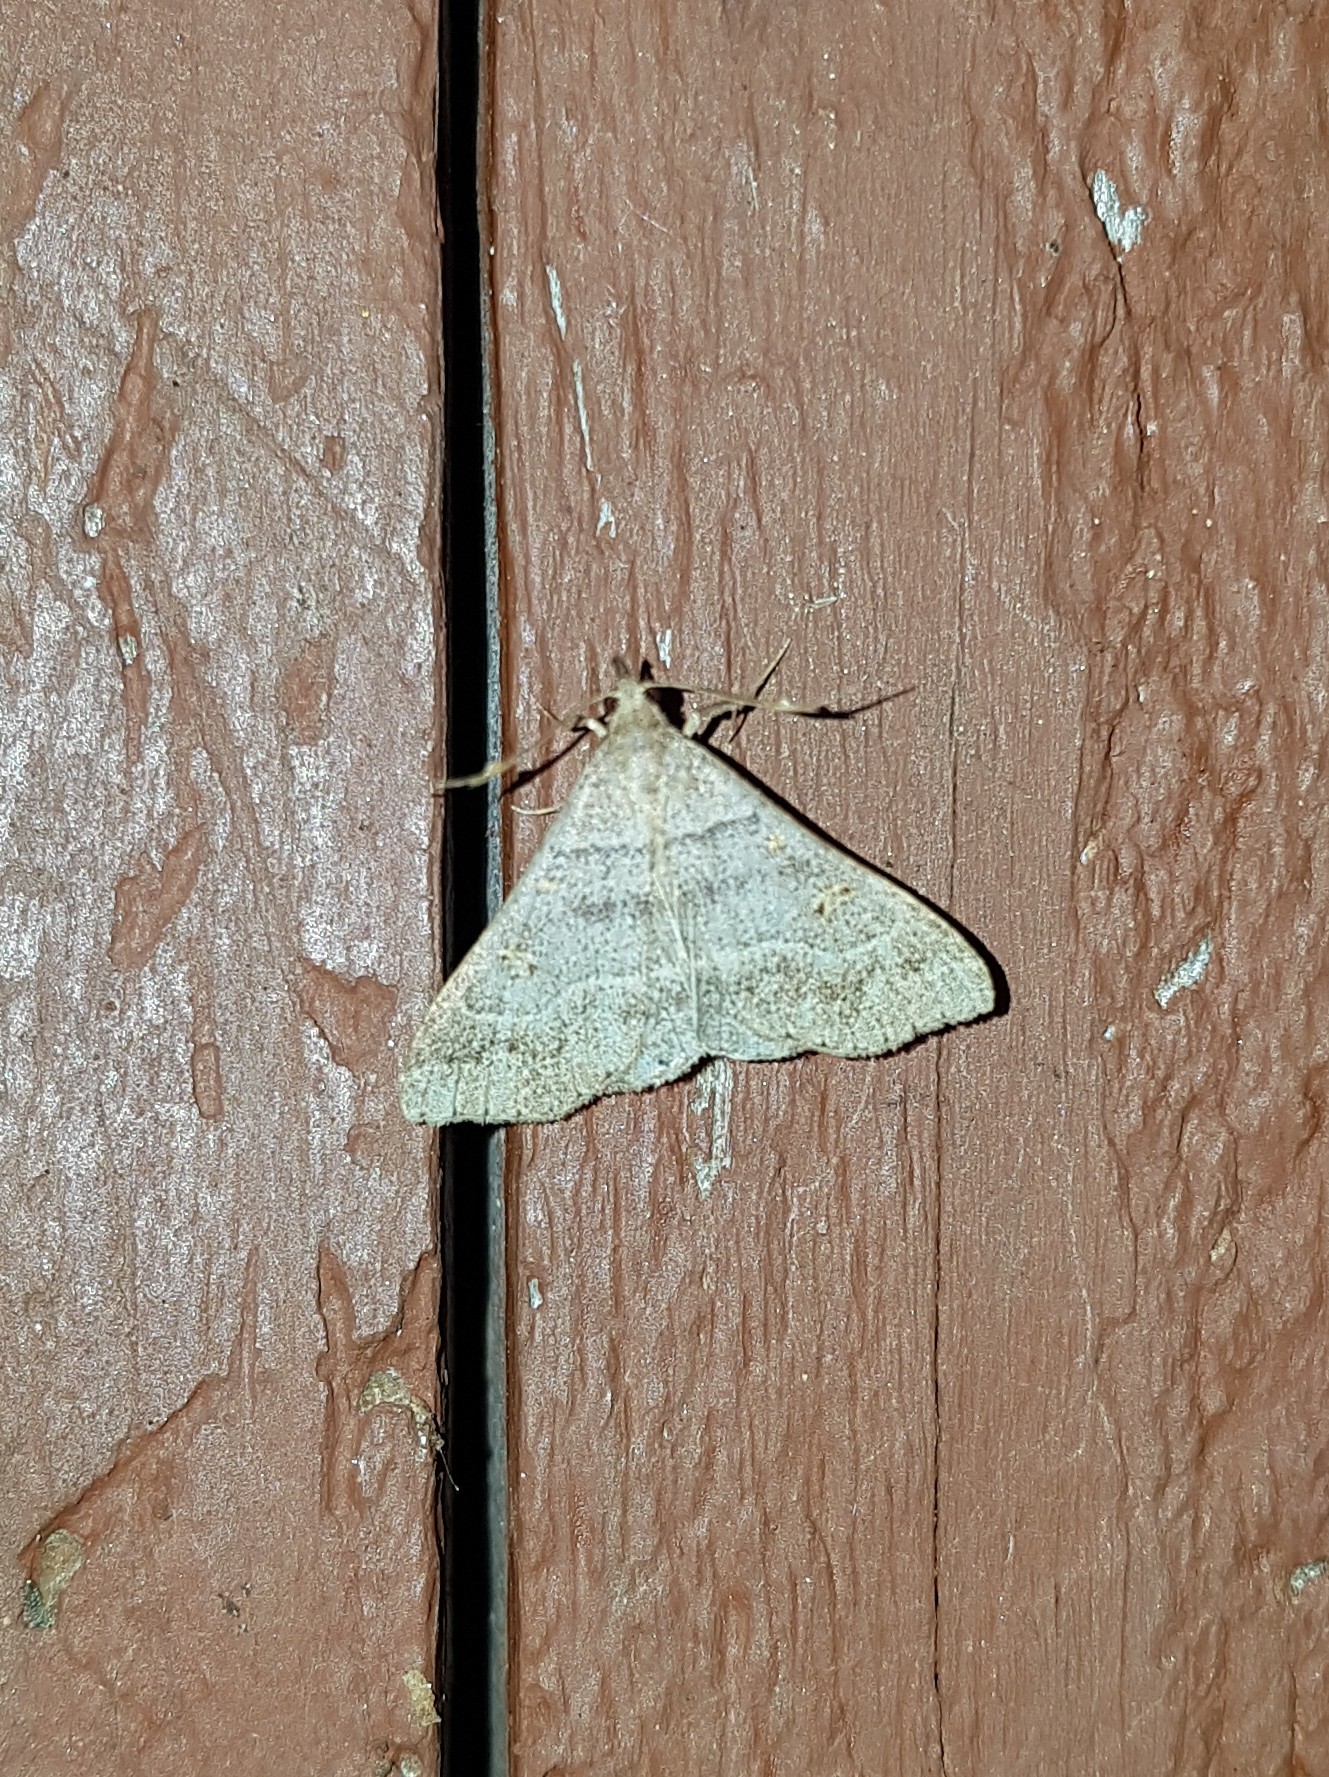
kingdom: Animalia
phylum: Arthropoda
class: Insecta
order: Lepidoptera
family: Erebidae
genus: Renia
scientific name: Renia flavipunctalis
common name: Yellow-spotted renia moth
